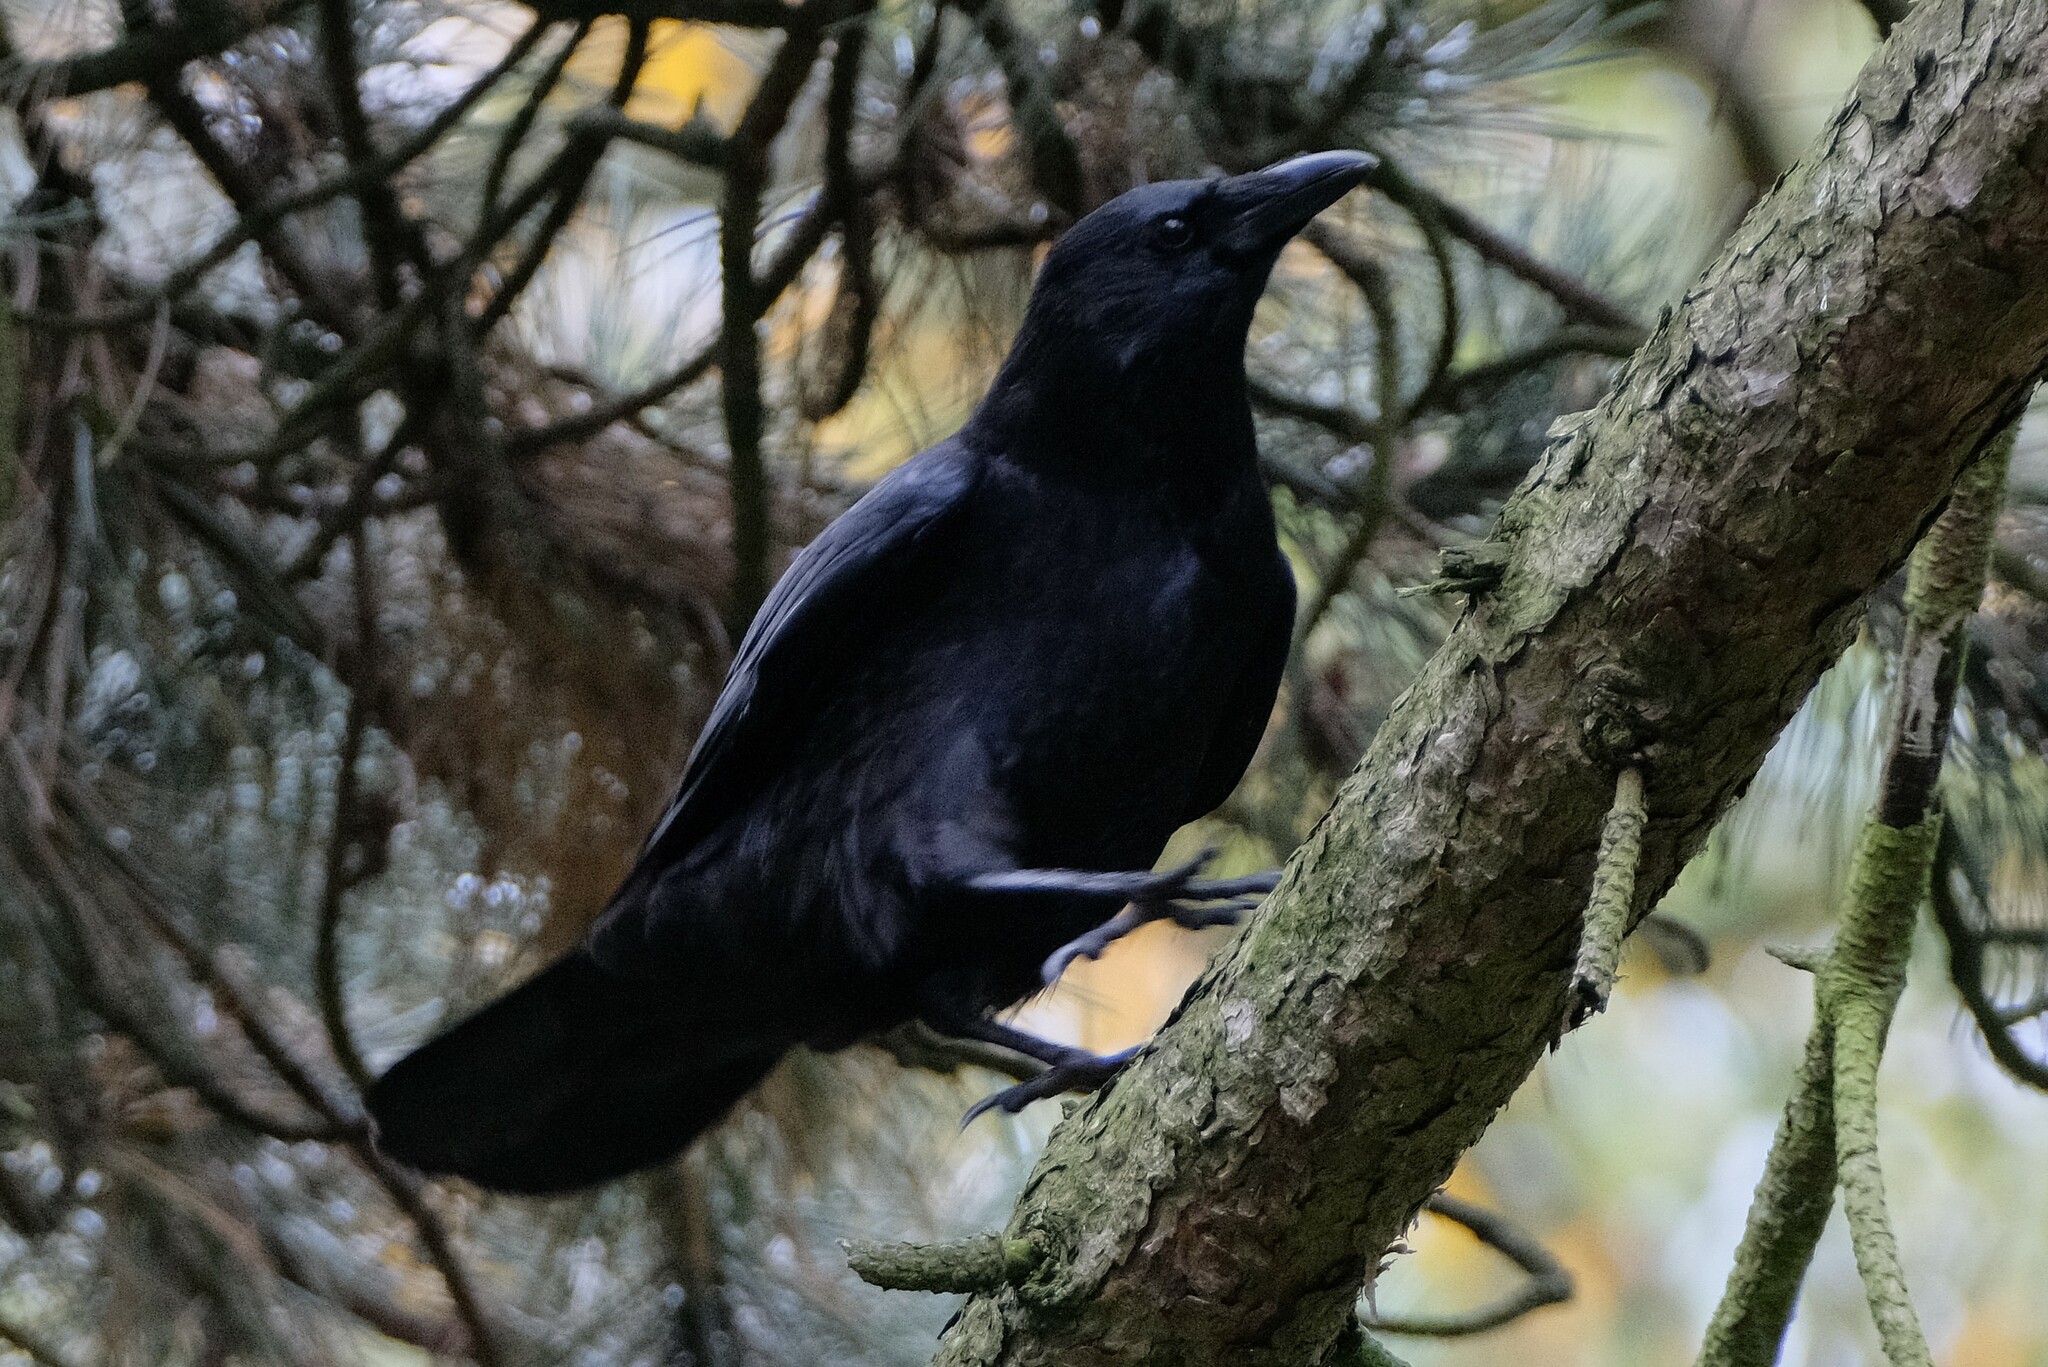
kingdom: Animalia
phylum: Chordata
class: Aves
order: Passeriformes
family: Corvidae
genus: Corvus
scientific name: Corvus corone
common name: Carrion crow
